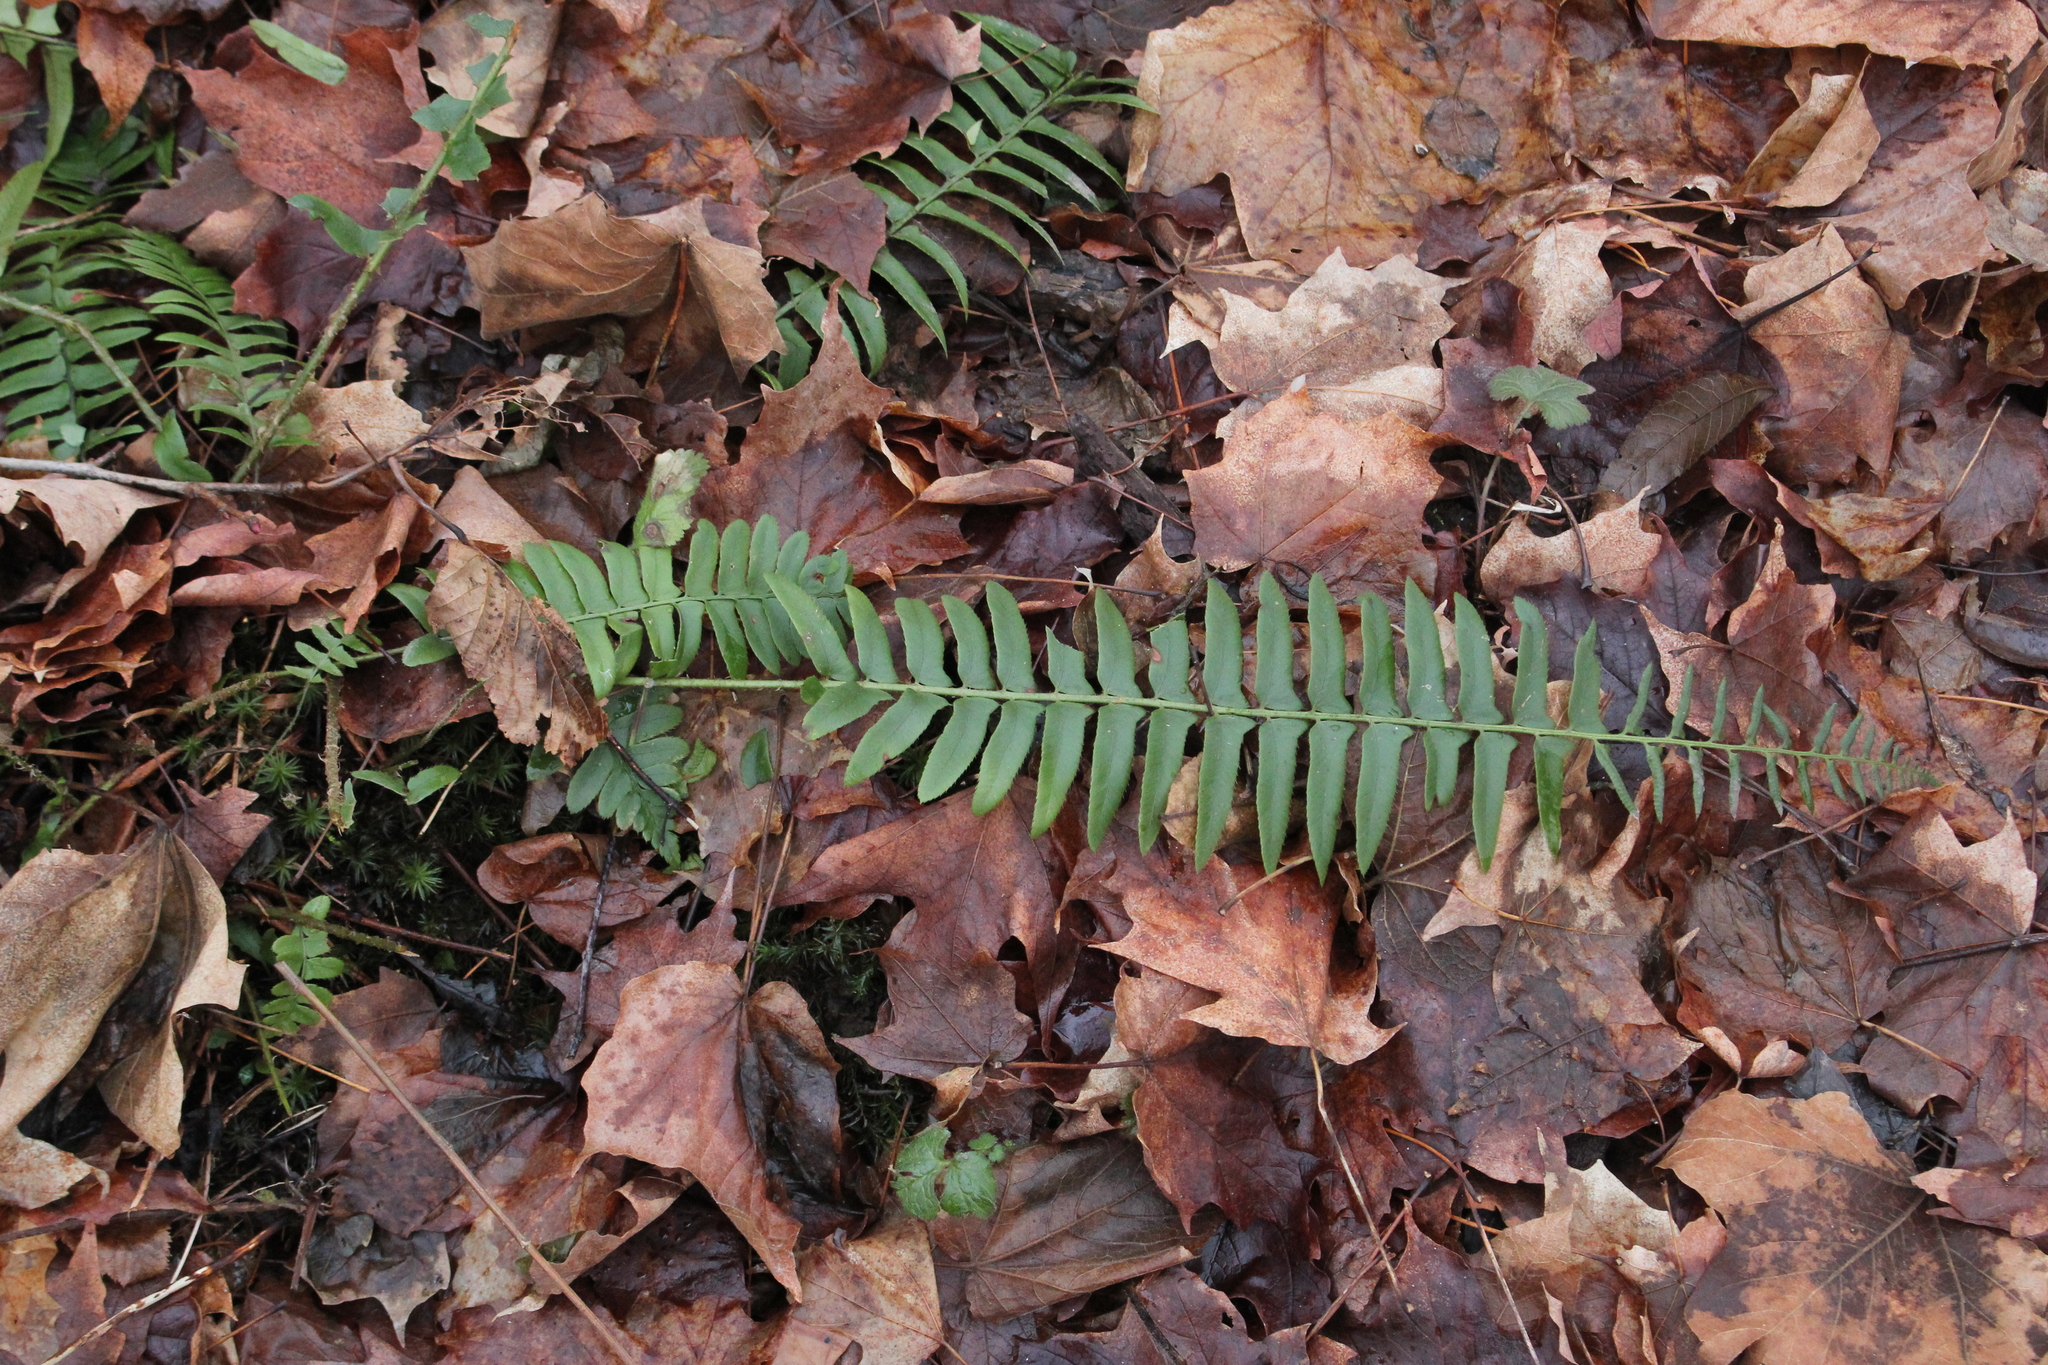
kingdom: Plantae
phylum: Tracheophyta
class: Polypodiopsida
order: Polypodiales
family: Dryopteridaceae
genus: Polystichum
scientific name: Polystichum acrostichoides
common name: Christmas fern
